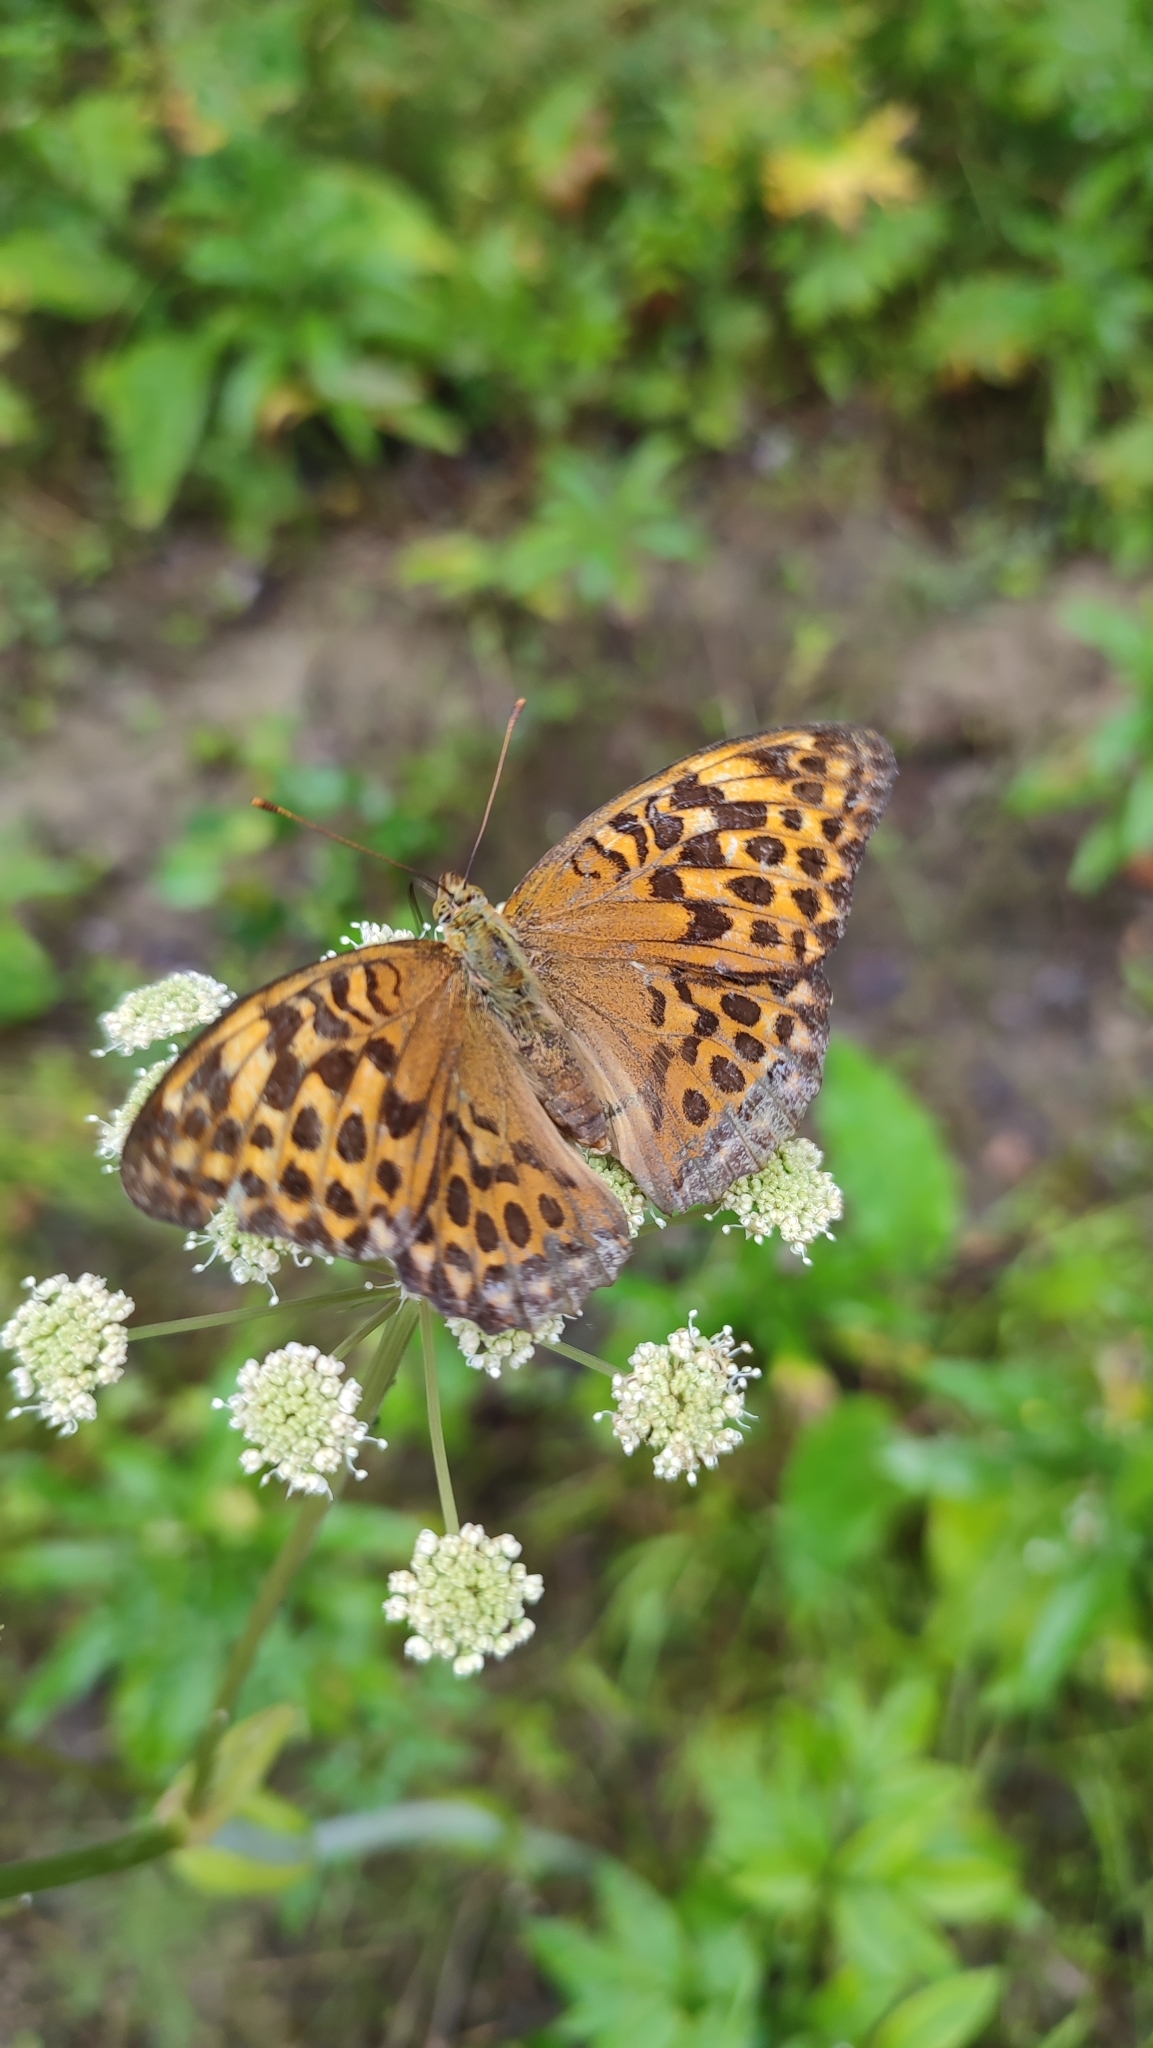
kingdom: Animalia
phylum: Arthropoda
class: Insecta
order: Lepidoptera
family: Nymphalidae
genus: Argynnis
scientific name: Argynnis paphia
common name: Silver-washed fritillary
